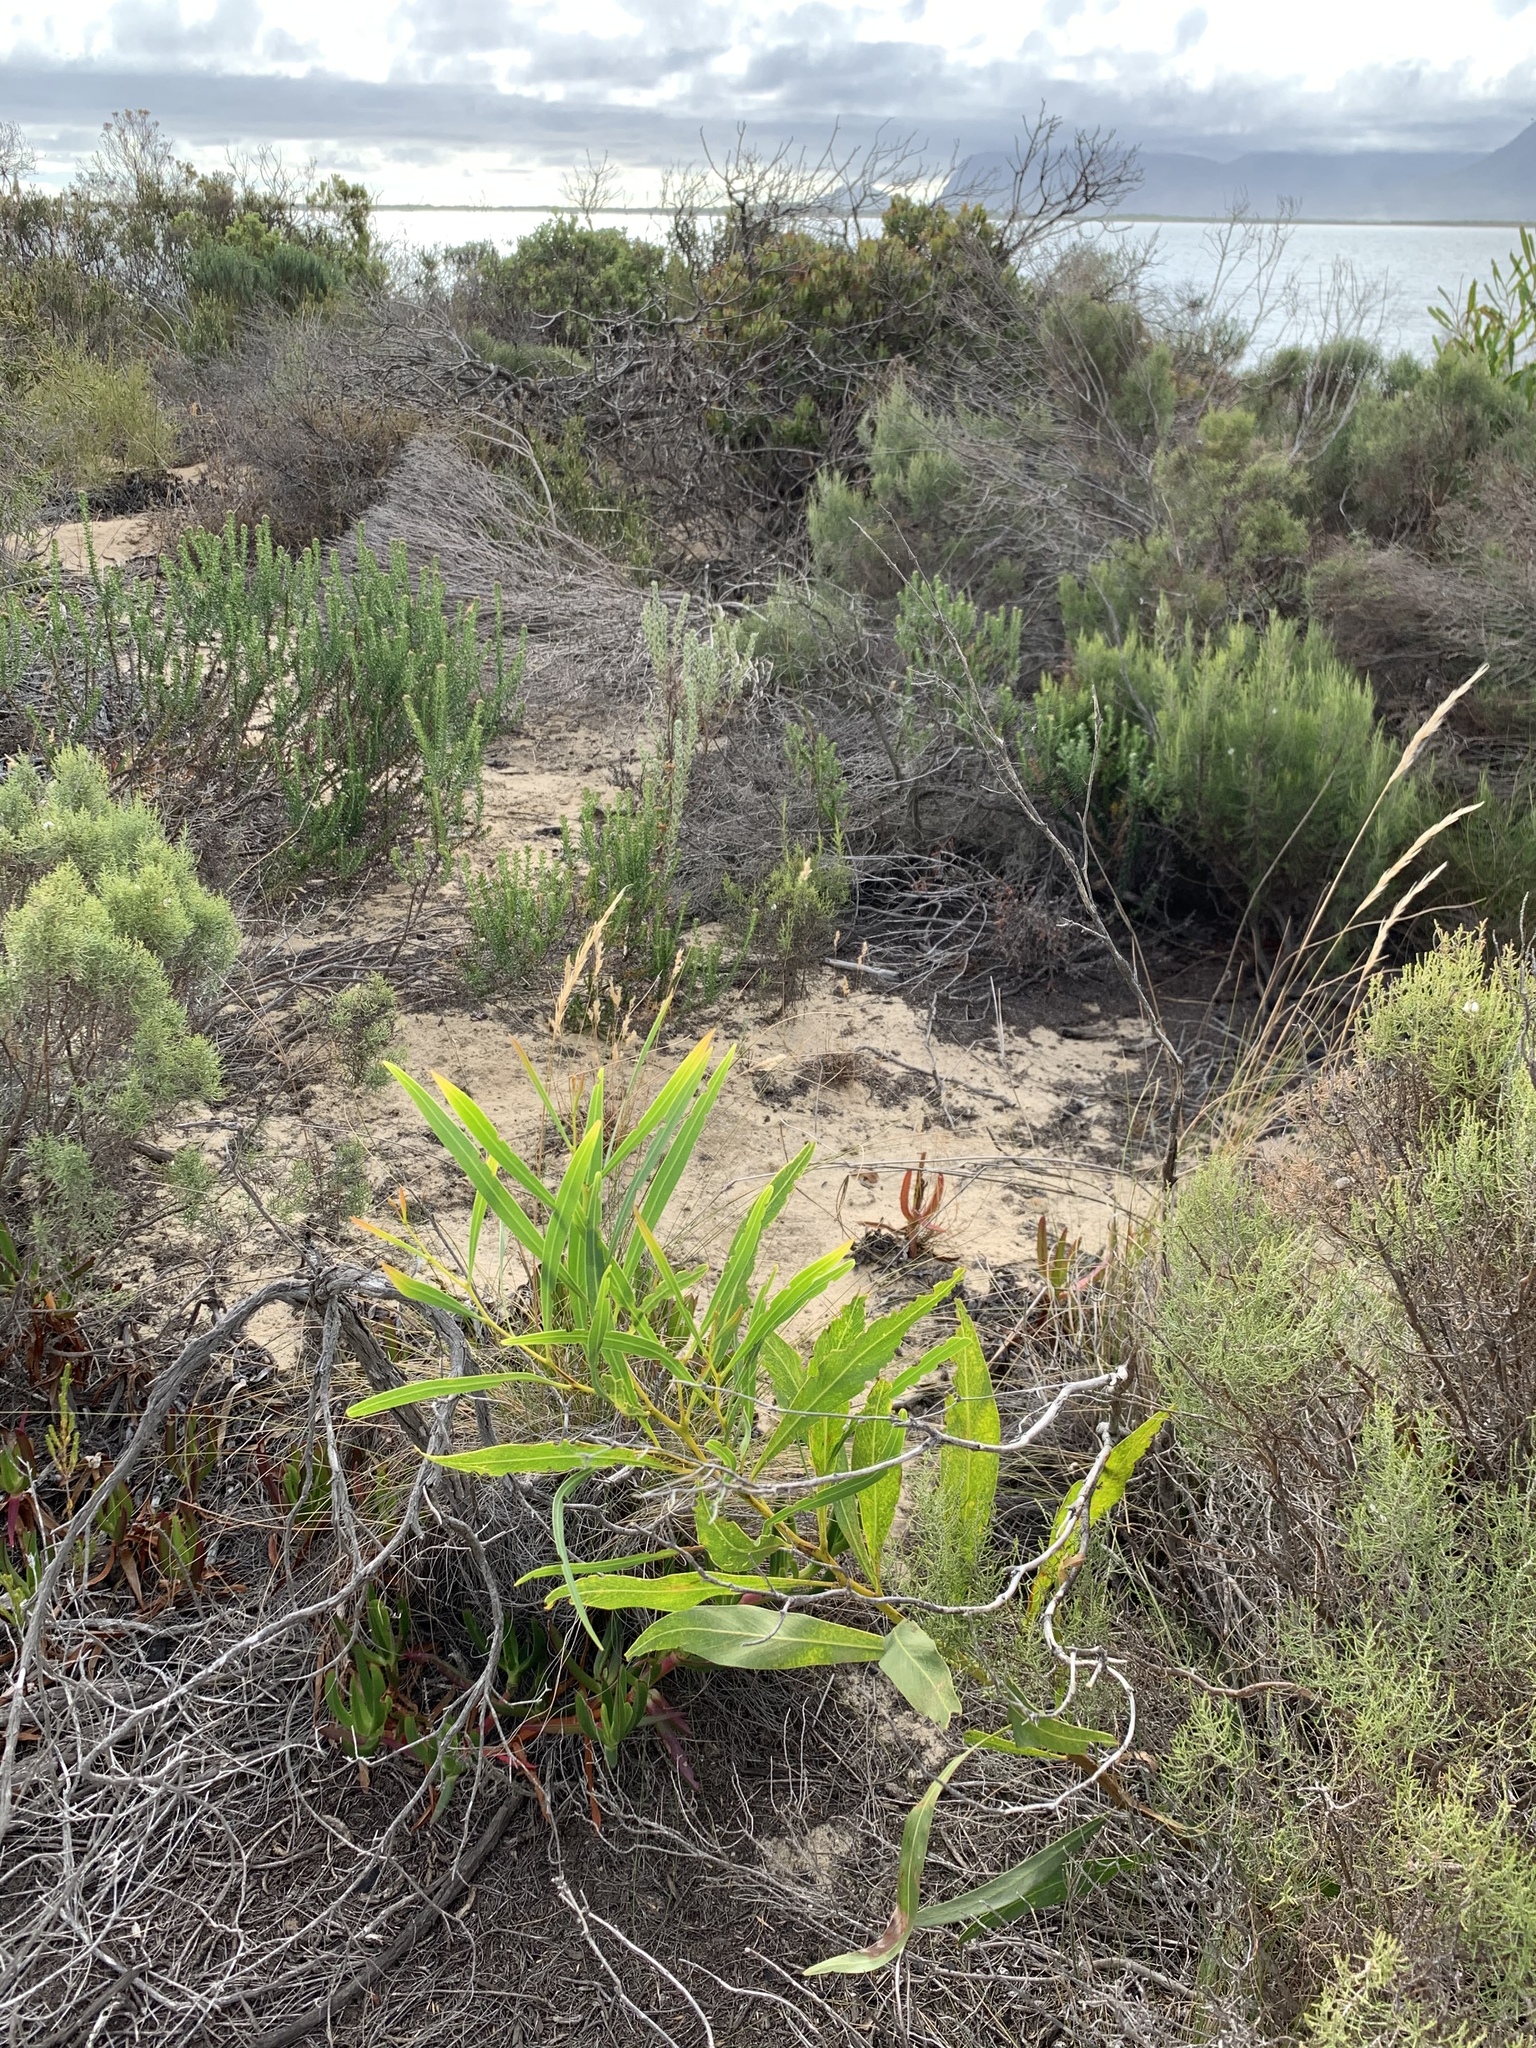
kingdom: Plantae
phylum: Tracheophyta
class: Magnoliopsida
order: Fabales
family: Fabaceae
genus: Acacia
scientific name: Acacia saligna
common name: Orange wattle
